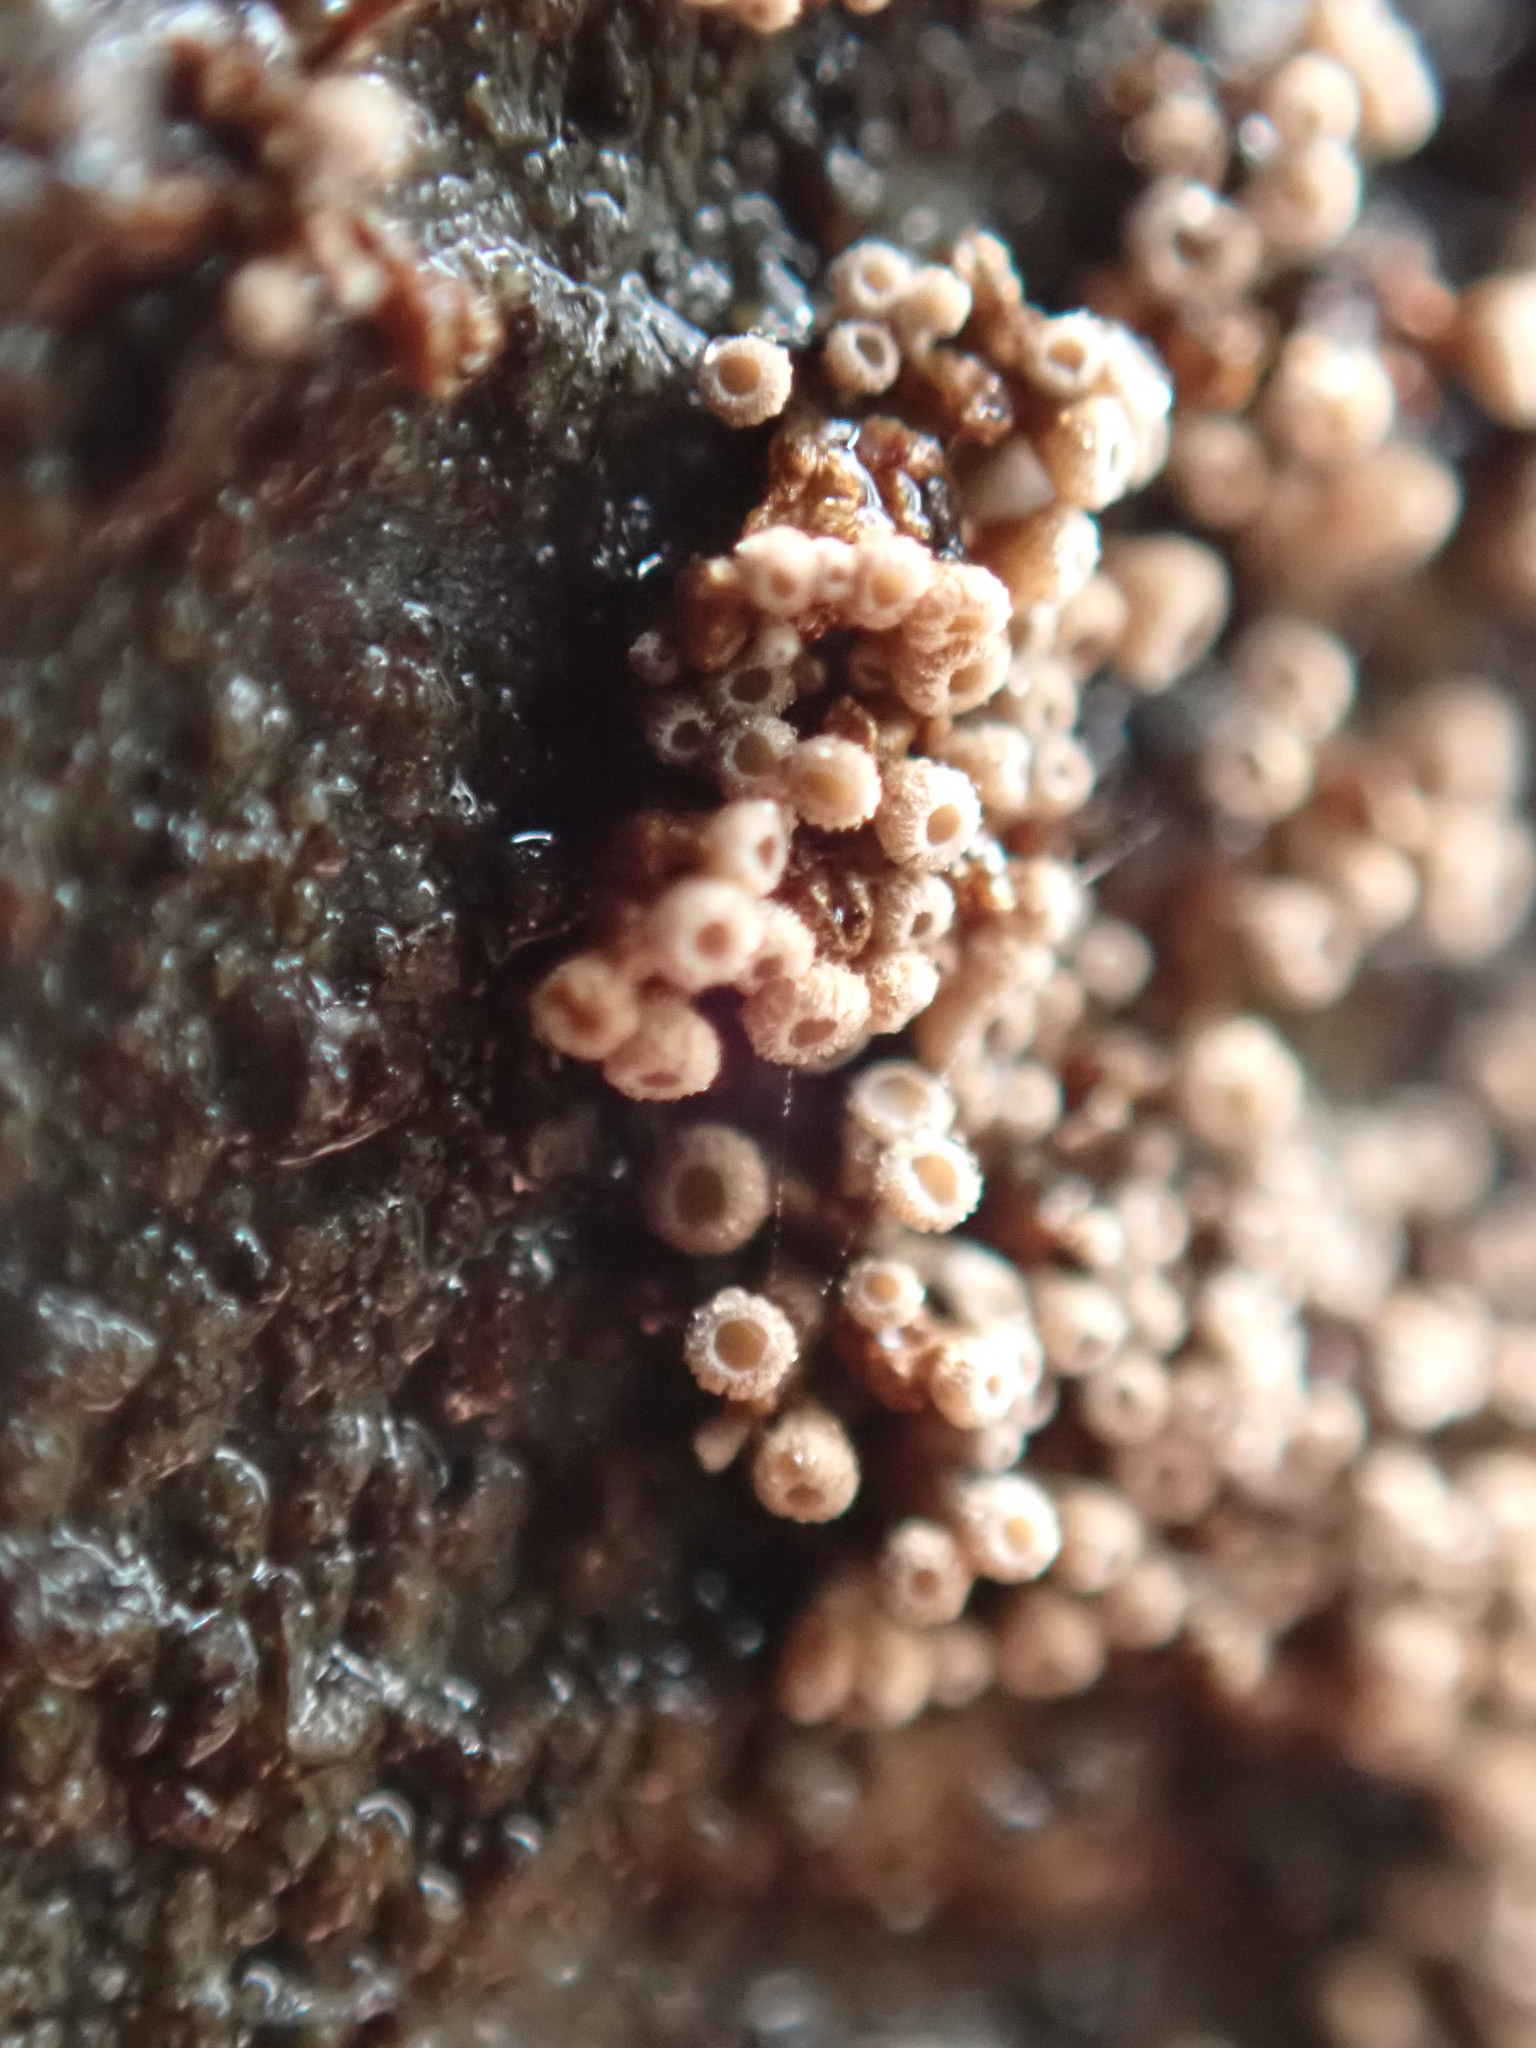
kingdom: Fungi
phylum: Basidiomycota
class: Agaricomycetes
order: Agaricales
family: Niaceae
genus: Merismodes
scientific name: Merismodes fasciculata
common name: Crowded cuplet
